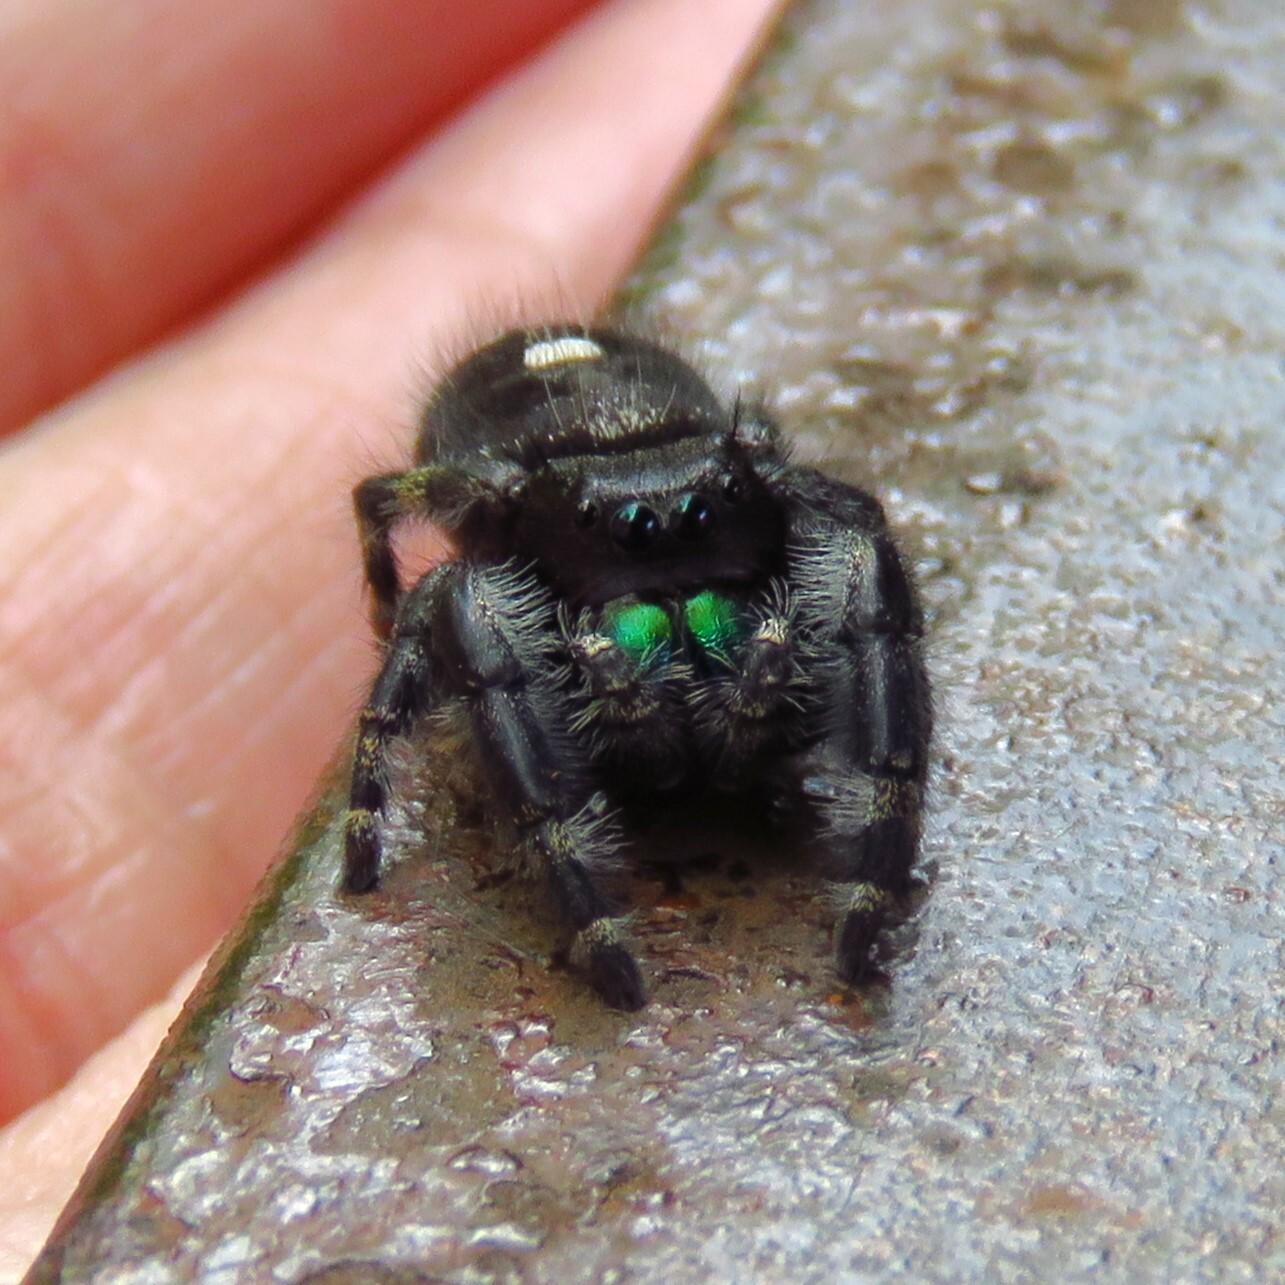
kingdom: Animalia
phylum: Arthropoda
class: Arachnida
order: Araneae
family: Salticidae
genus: Phidippus
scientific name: Phidippus audax
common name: Bold jumper
